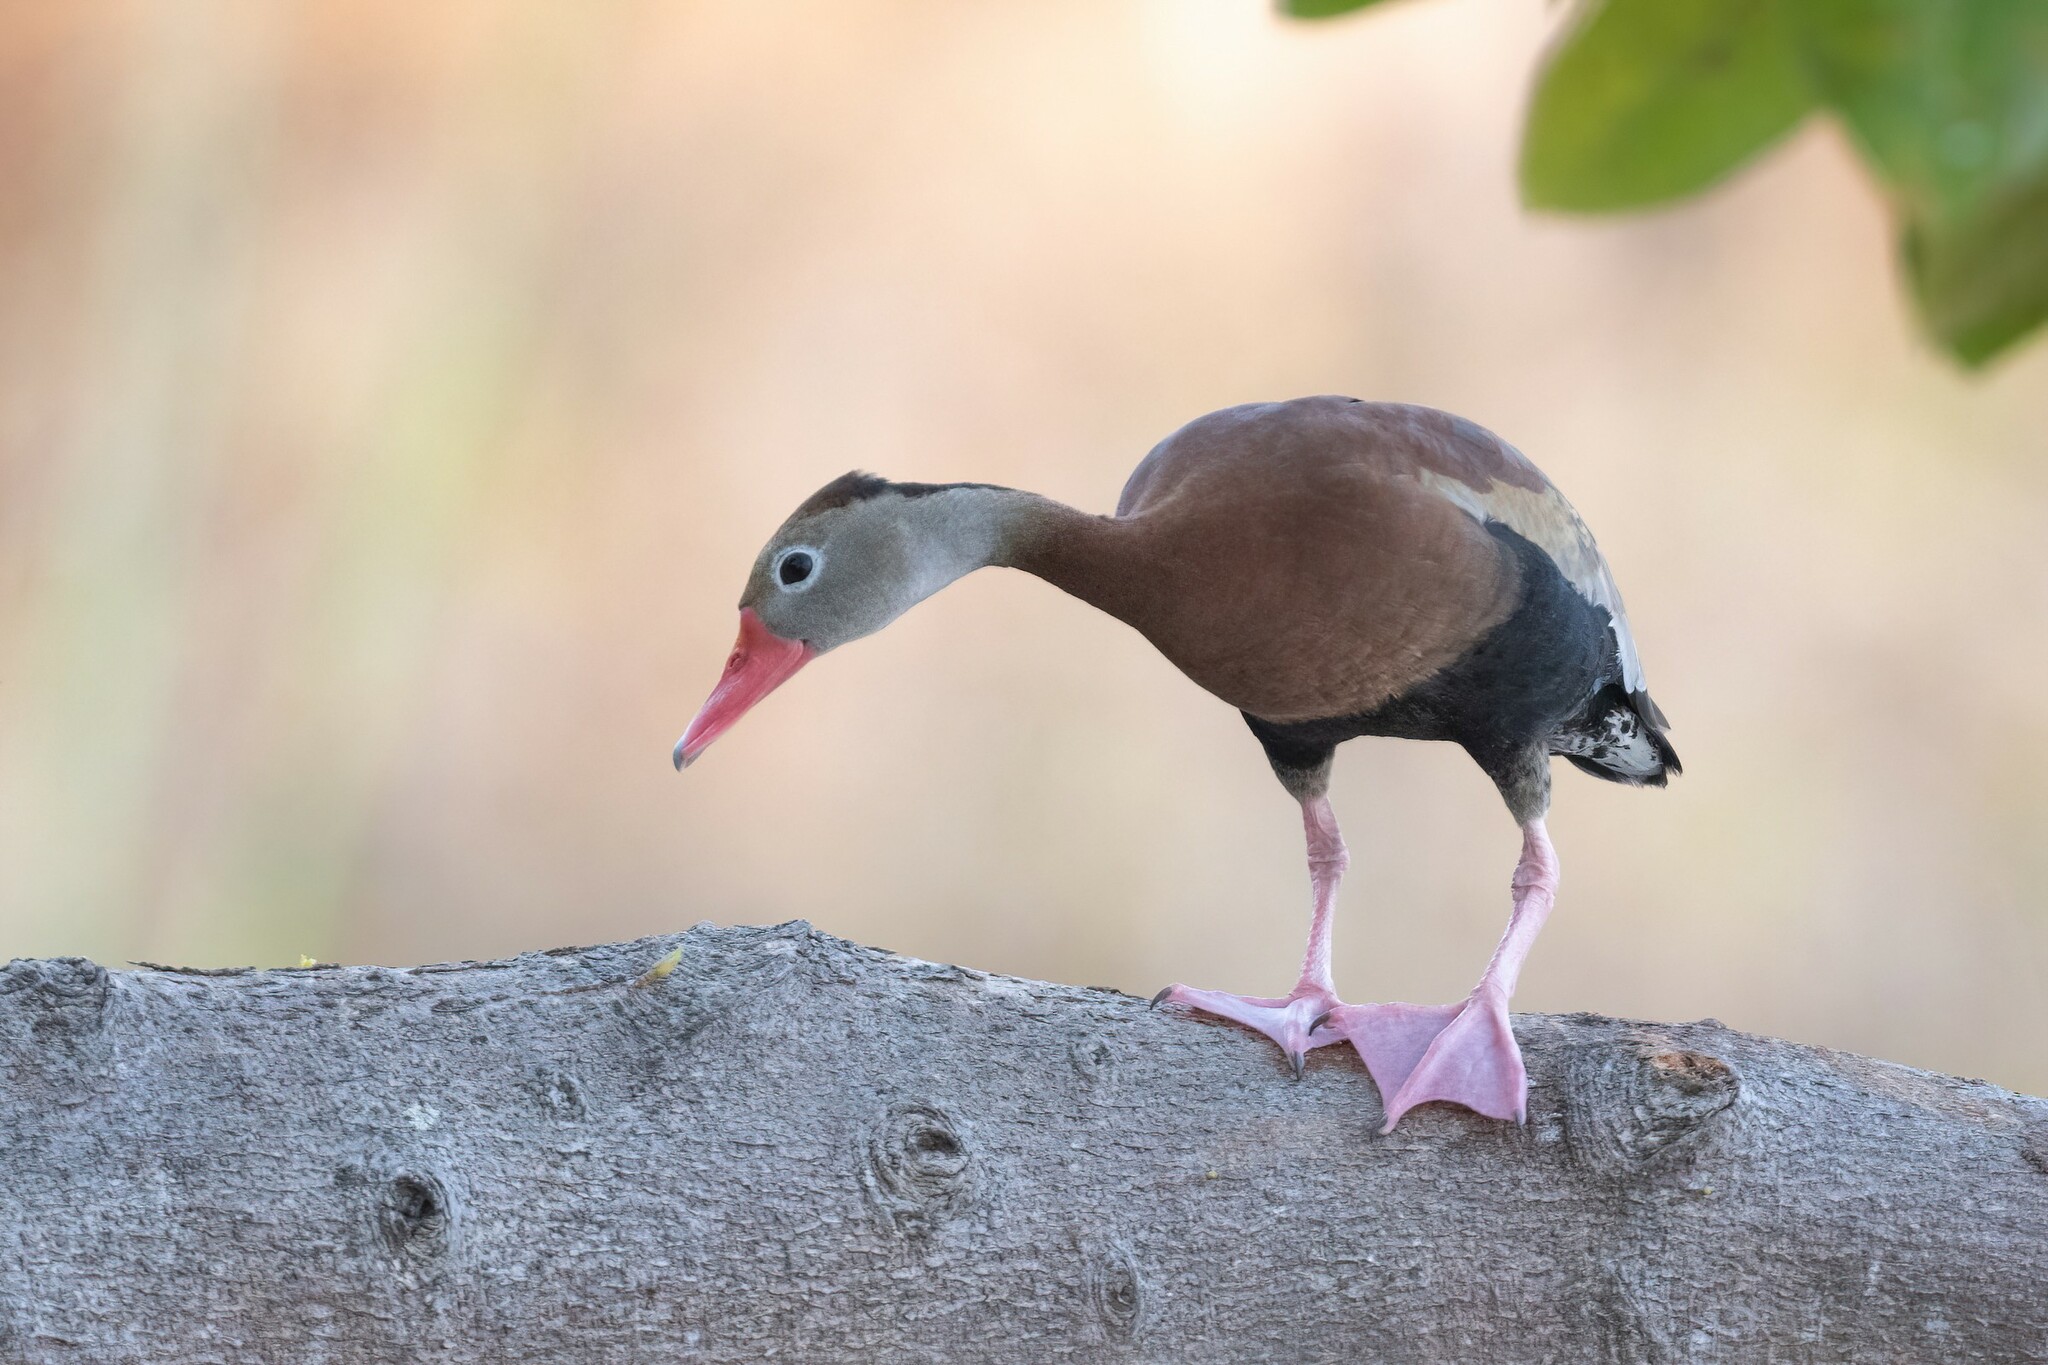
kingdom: Animalia
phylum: Chordata
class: Aves
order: Anseriformes
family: Anatidae
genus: Dendrocygna
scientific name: Dendrocygna autumnalis
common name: Black-bellied whistling duck
